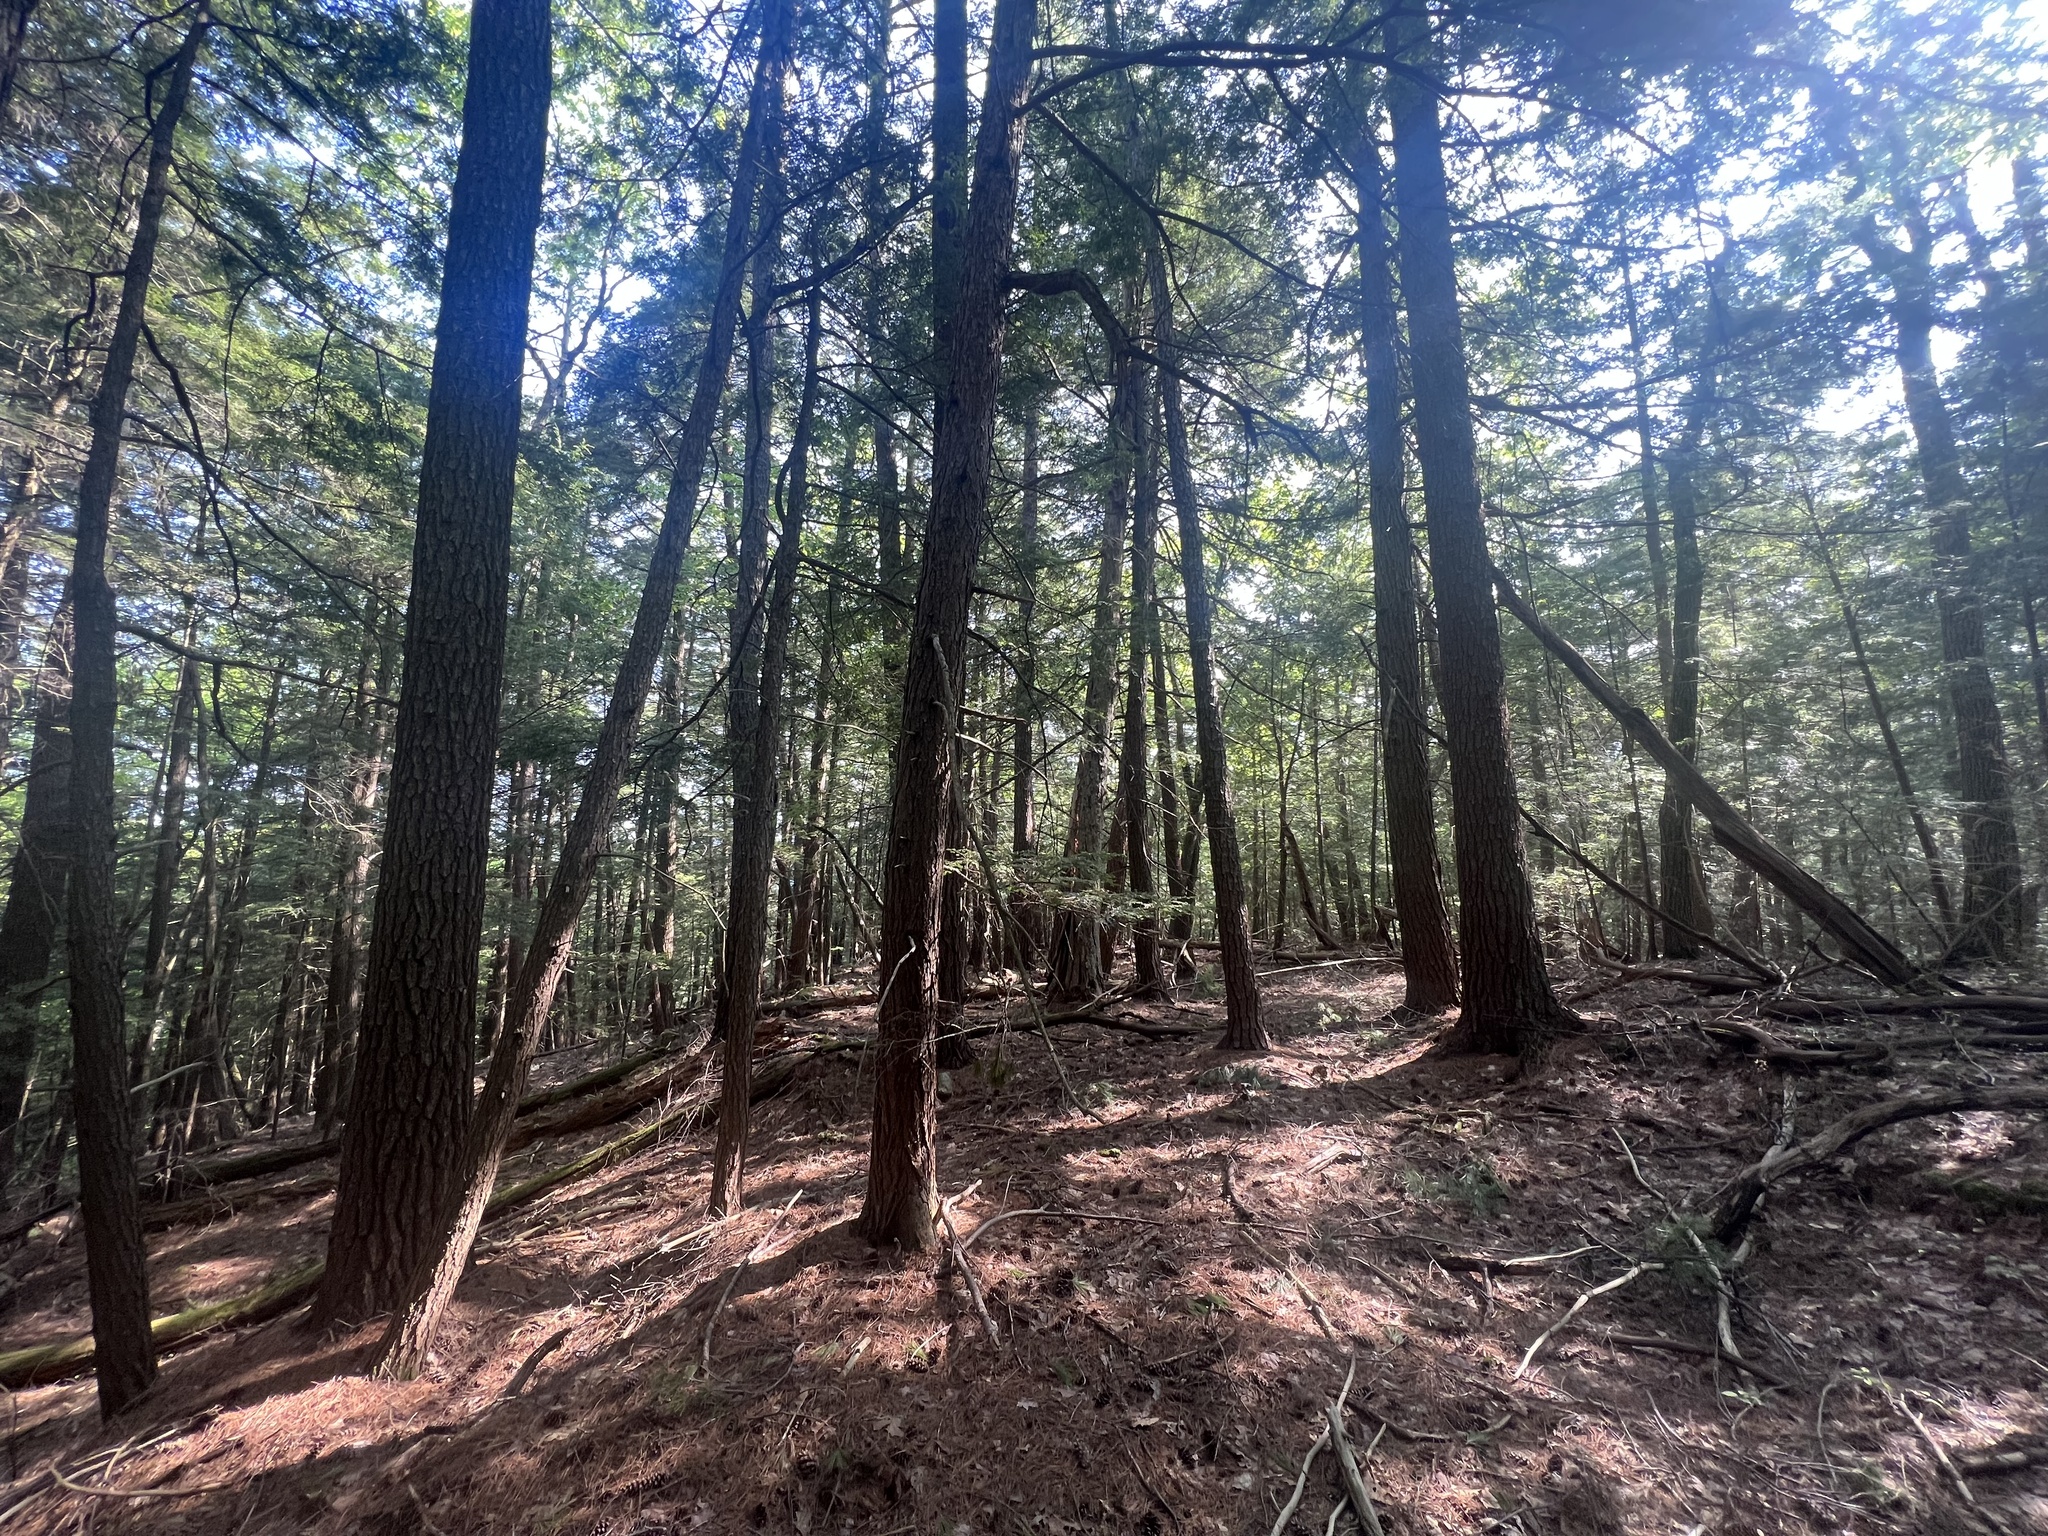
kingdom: Plantae
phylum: Tracheophyta
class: Pinopsida
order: Pinales
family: Pinaceae
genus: Tsuga
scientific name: Tsuga canadensis
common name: Eastern hemlock
